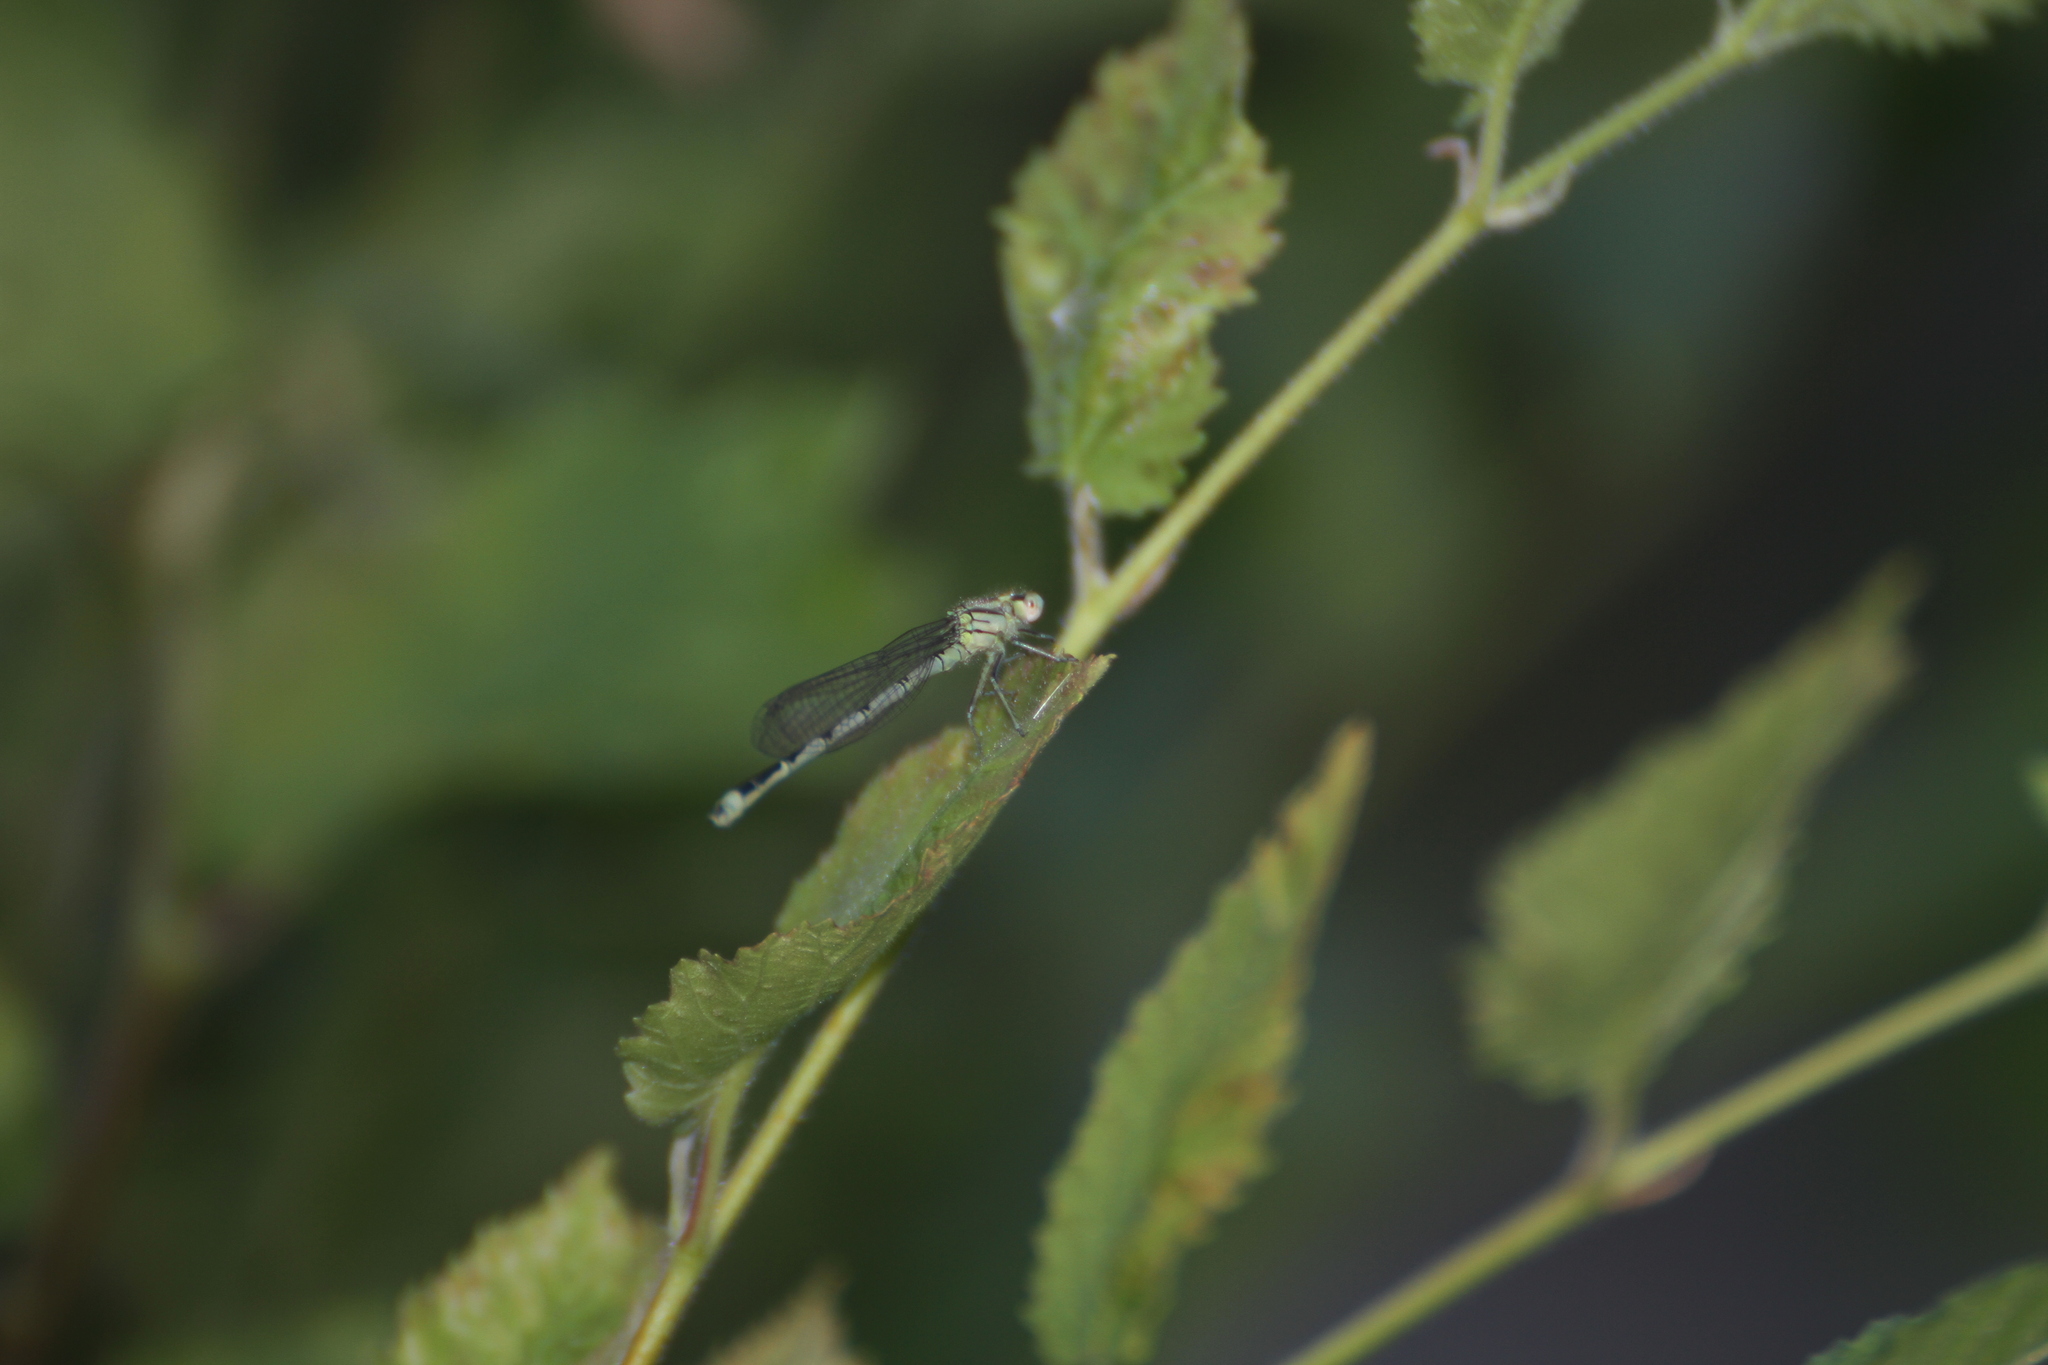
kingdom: Animalia
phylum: Arthropoda
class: Insecta
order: Odonata
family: Coenagrionidae
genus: Erythromma
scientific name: Erythromma lindenii
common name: Blue-eye
